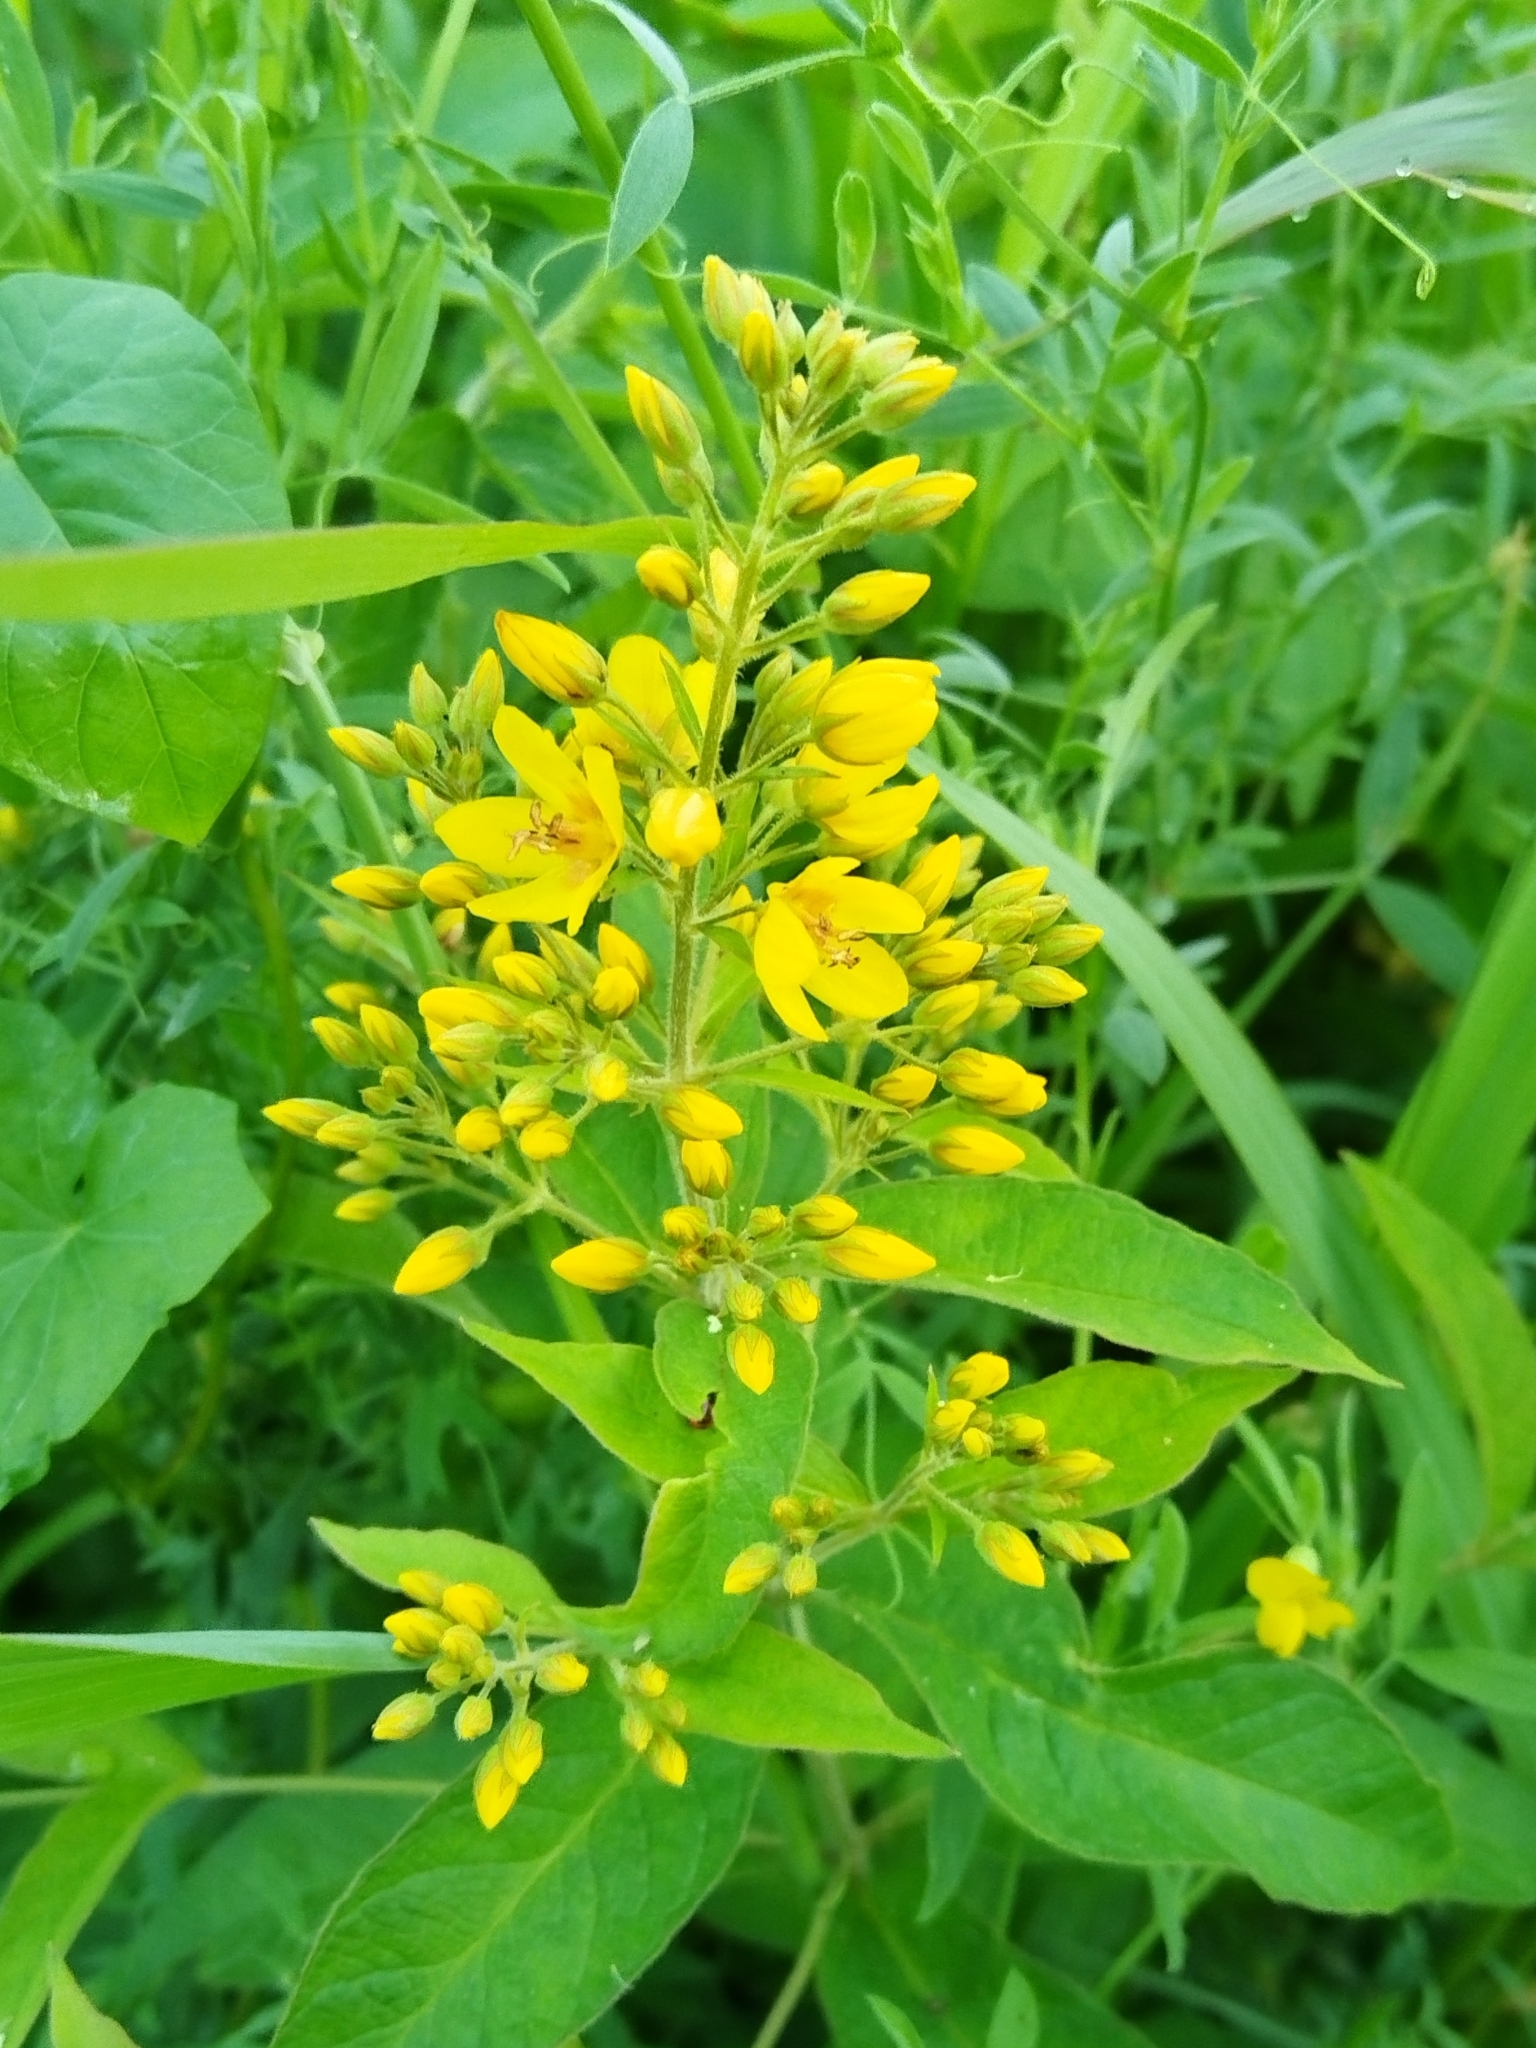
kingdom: Plantae
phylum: Tracheophyta
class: Magnoliopsida
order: Ericales
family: Primulaceae
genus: Lysimachia
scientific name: Lysimachia vulgaris
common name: Yellow loosestrife
